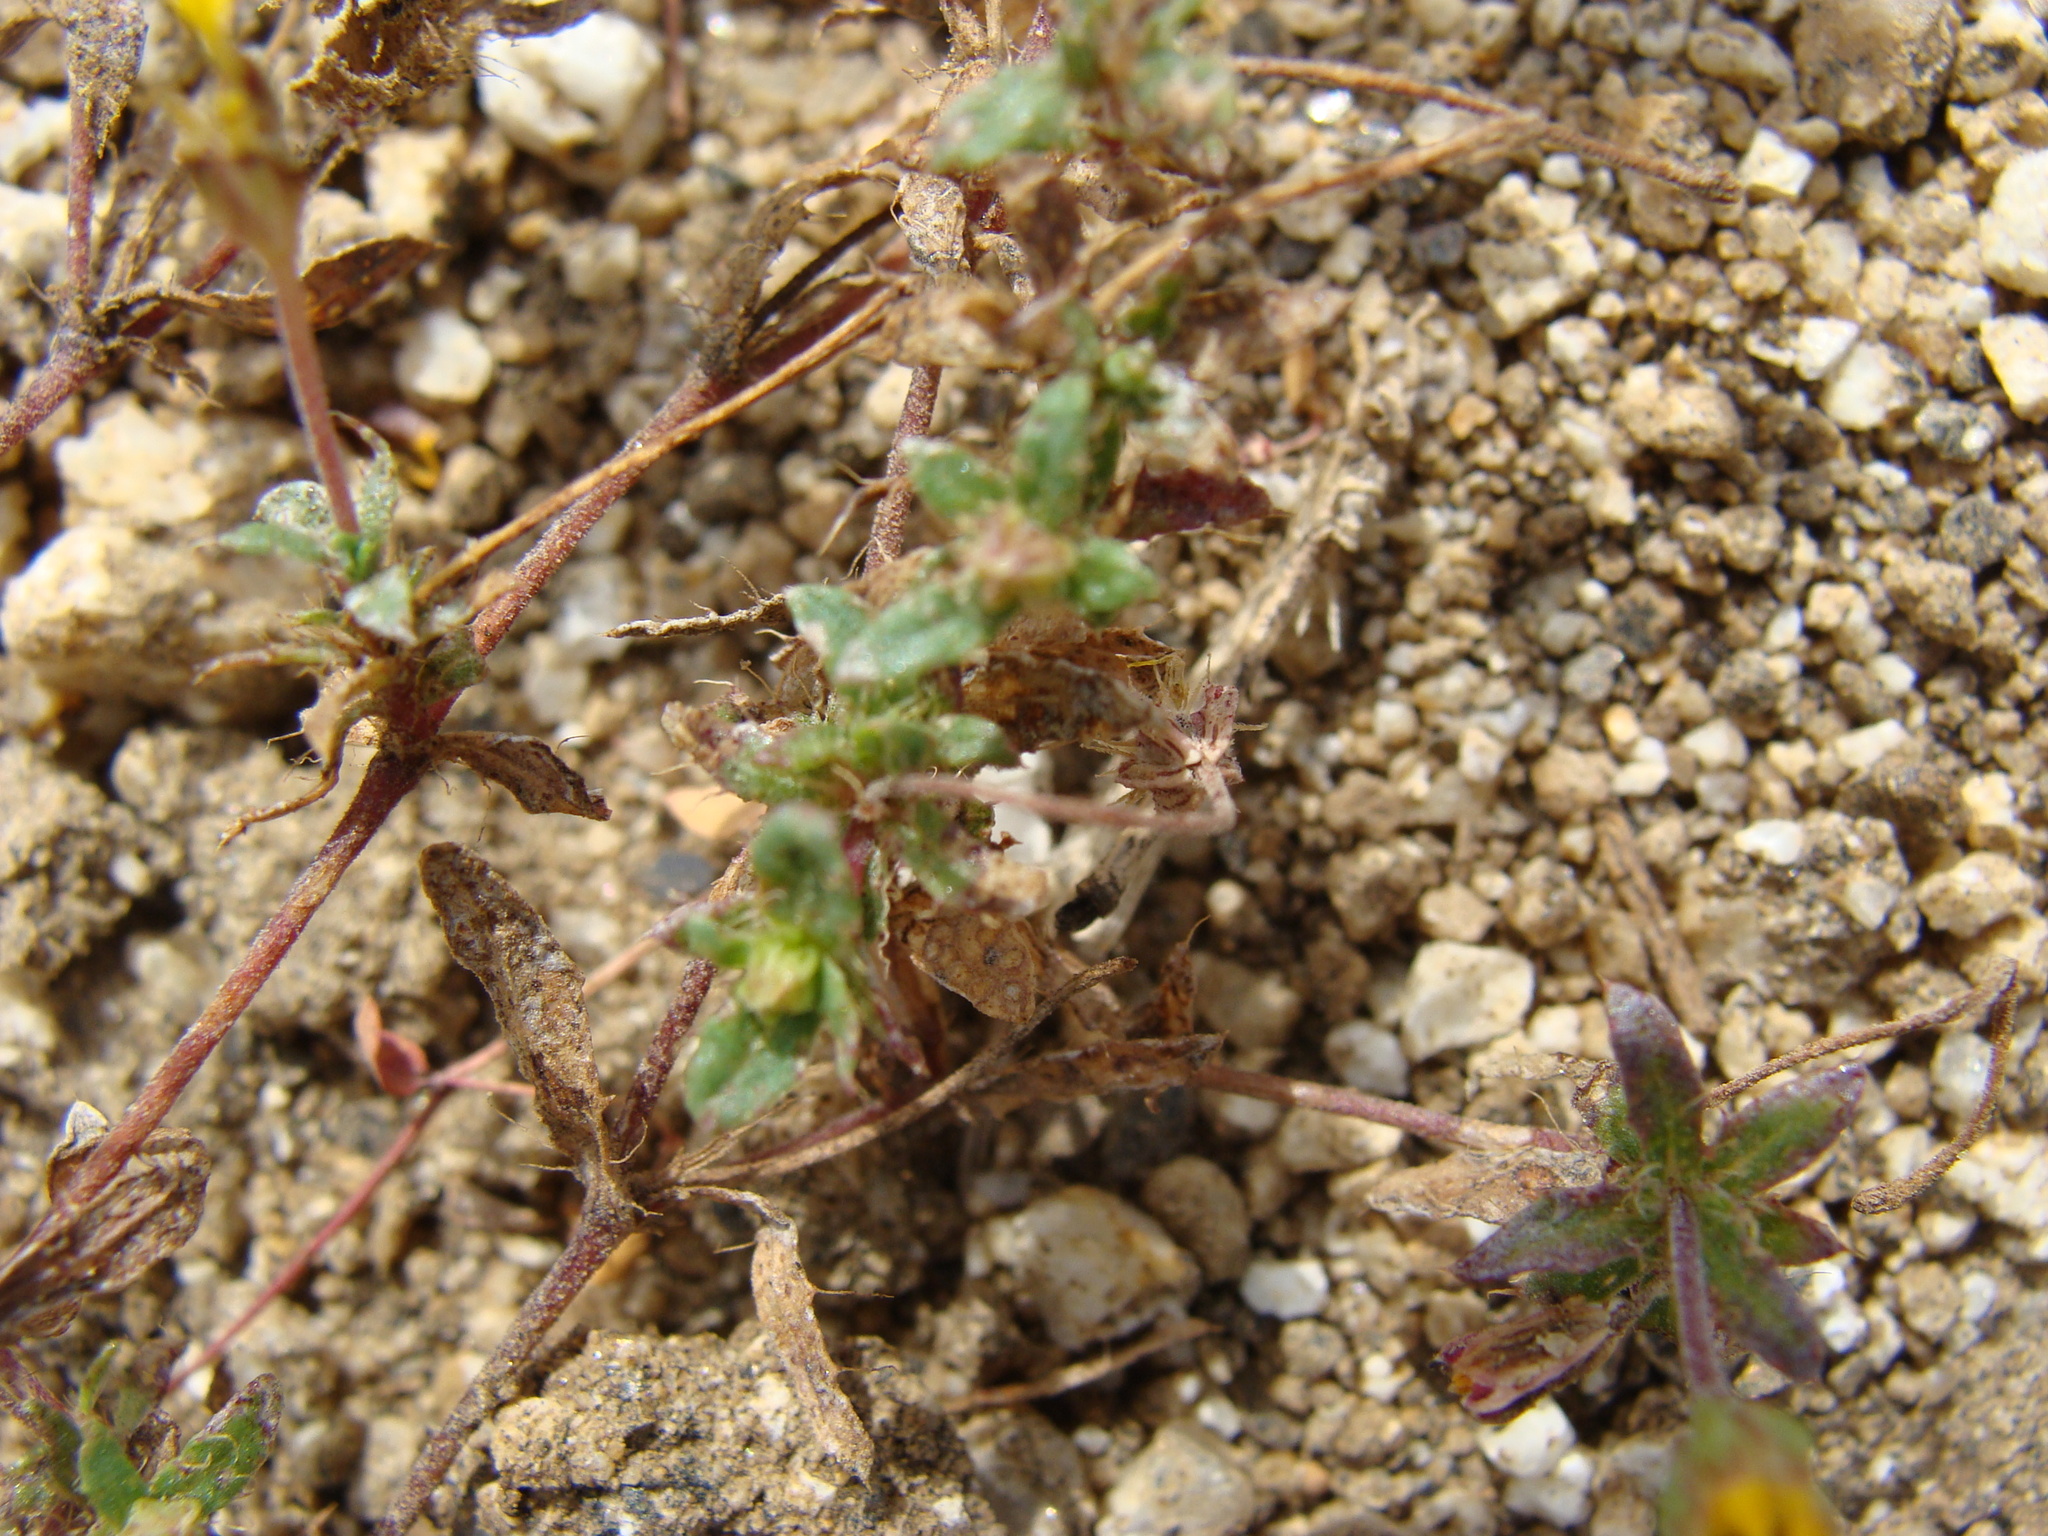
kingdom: Plantae
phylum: Tracheophyta
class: Magnoliopsida
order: Asterales
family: Asteraceae
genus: Pectis
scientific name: Pectis multiseta
